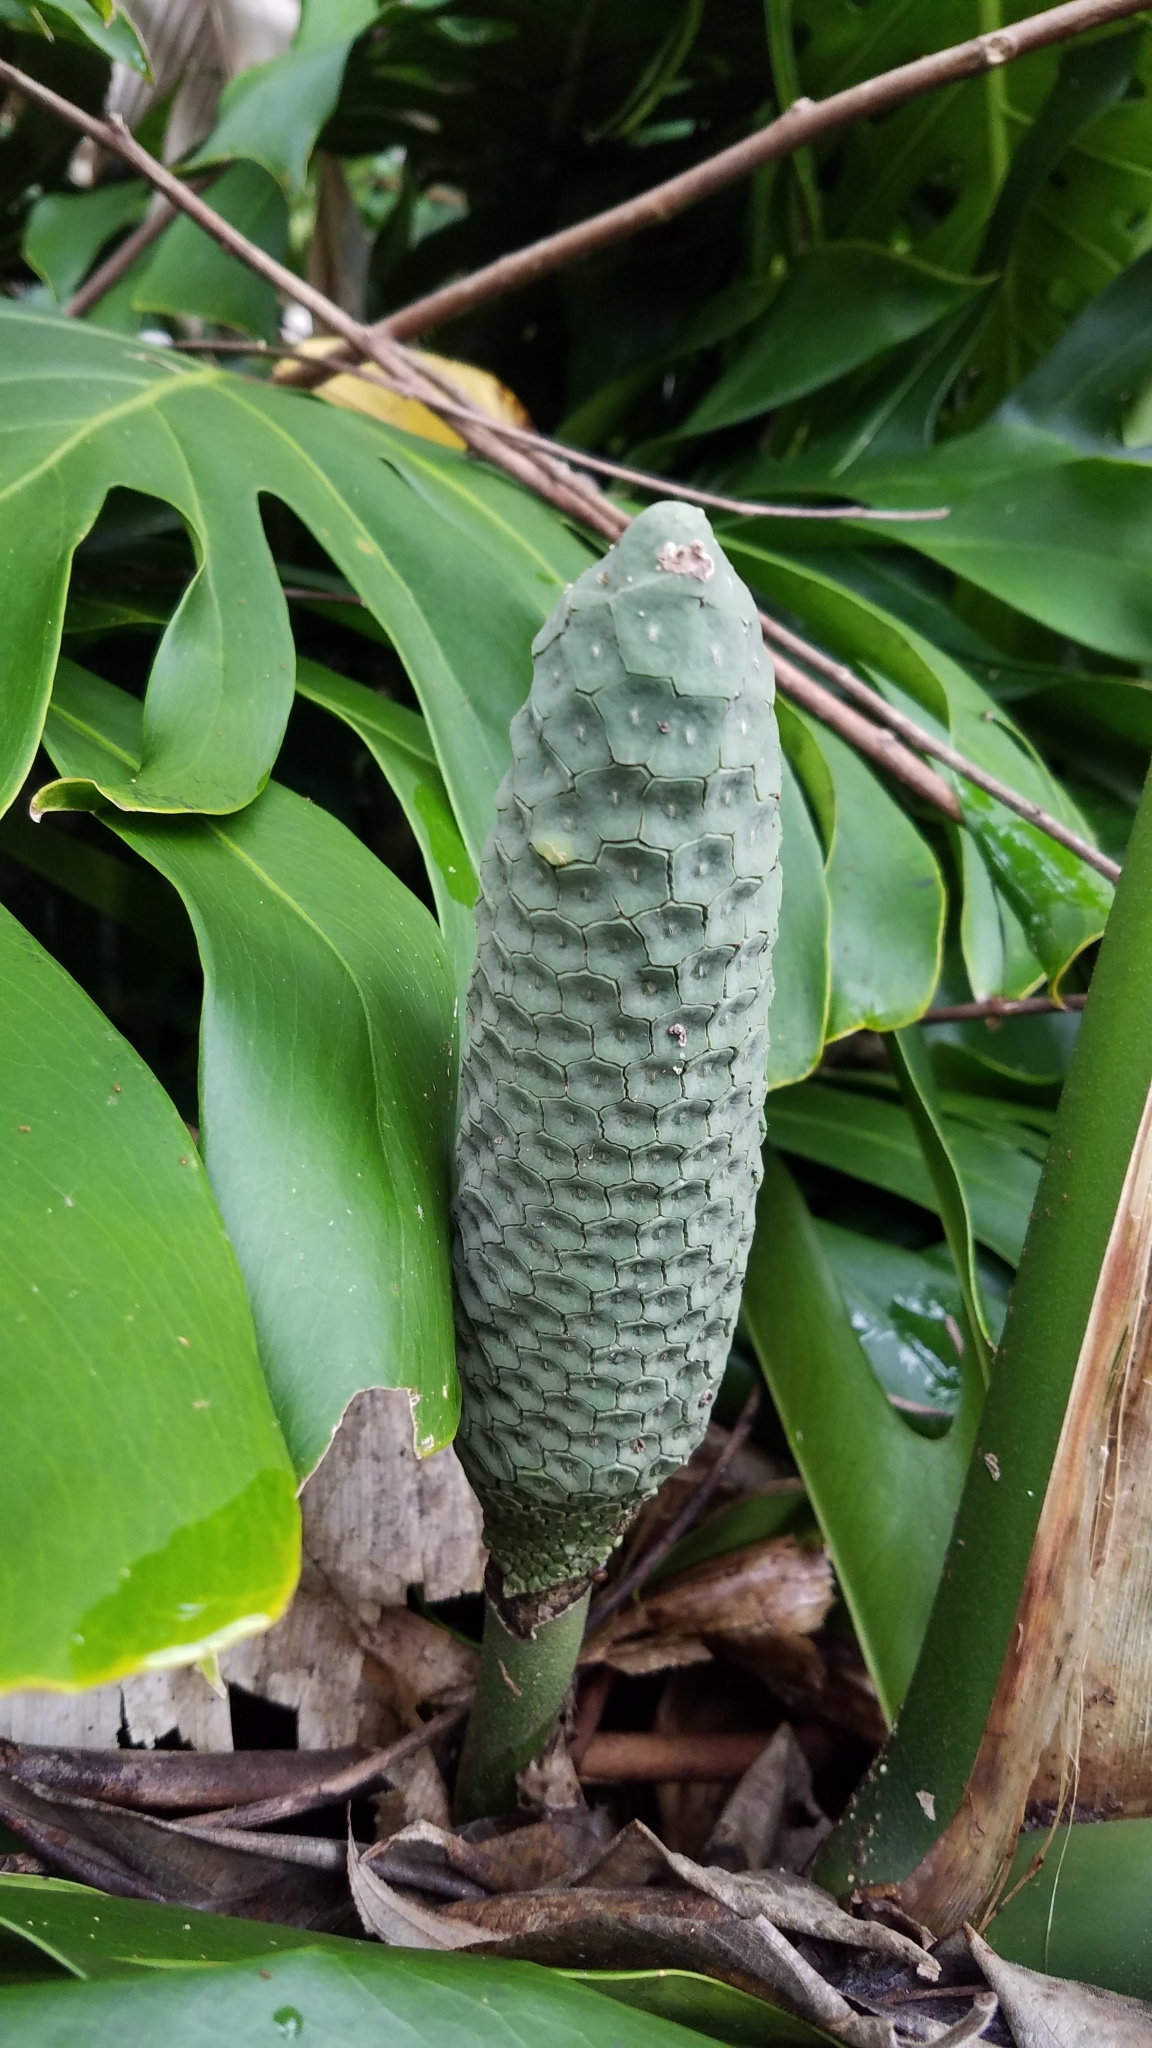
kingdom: Plantae
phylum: Tracheophyta
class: Liliopsida
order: Alismatales
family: Araceae
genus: Monstera
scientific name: Monstera deliciosa
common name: Cut-leaf-philodendron
